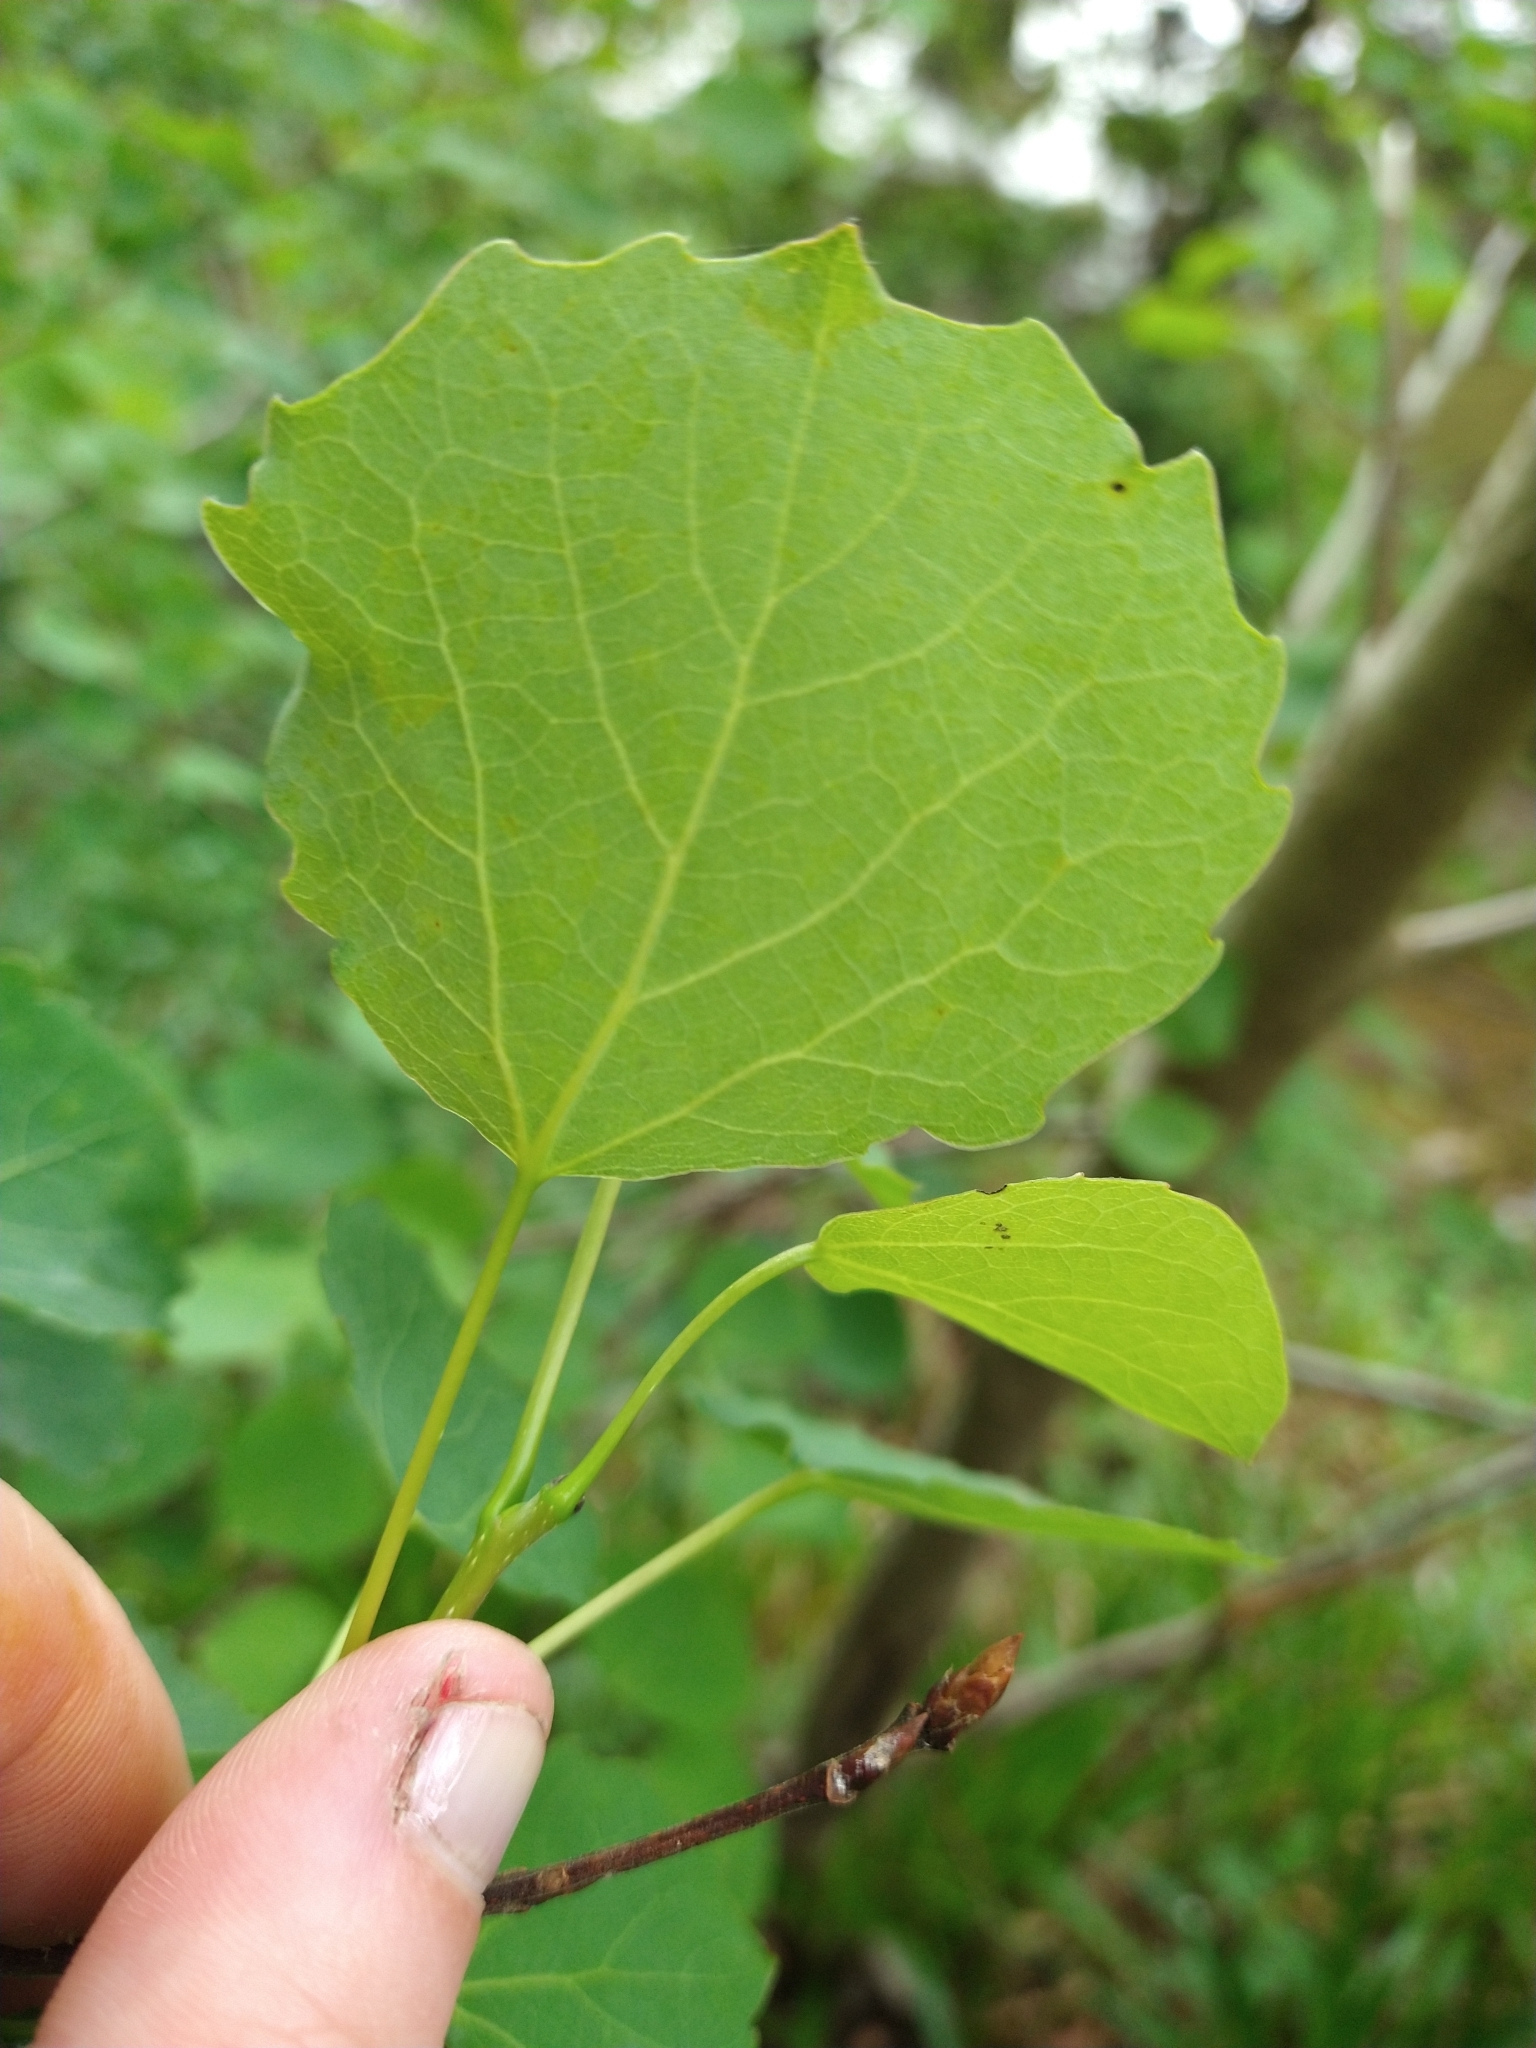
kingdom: Plantae
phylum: Tracheophyta
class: Magnoliopsida
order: Malpighiales
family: Salicaceae
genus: Populus
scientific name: Populus tremula
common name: European aspen
